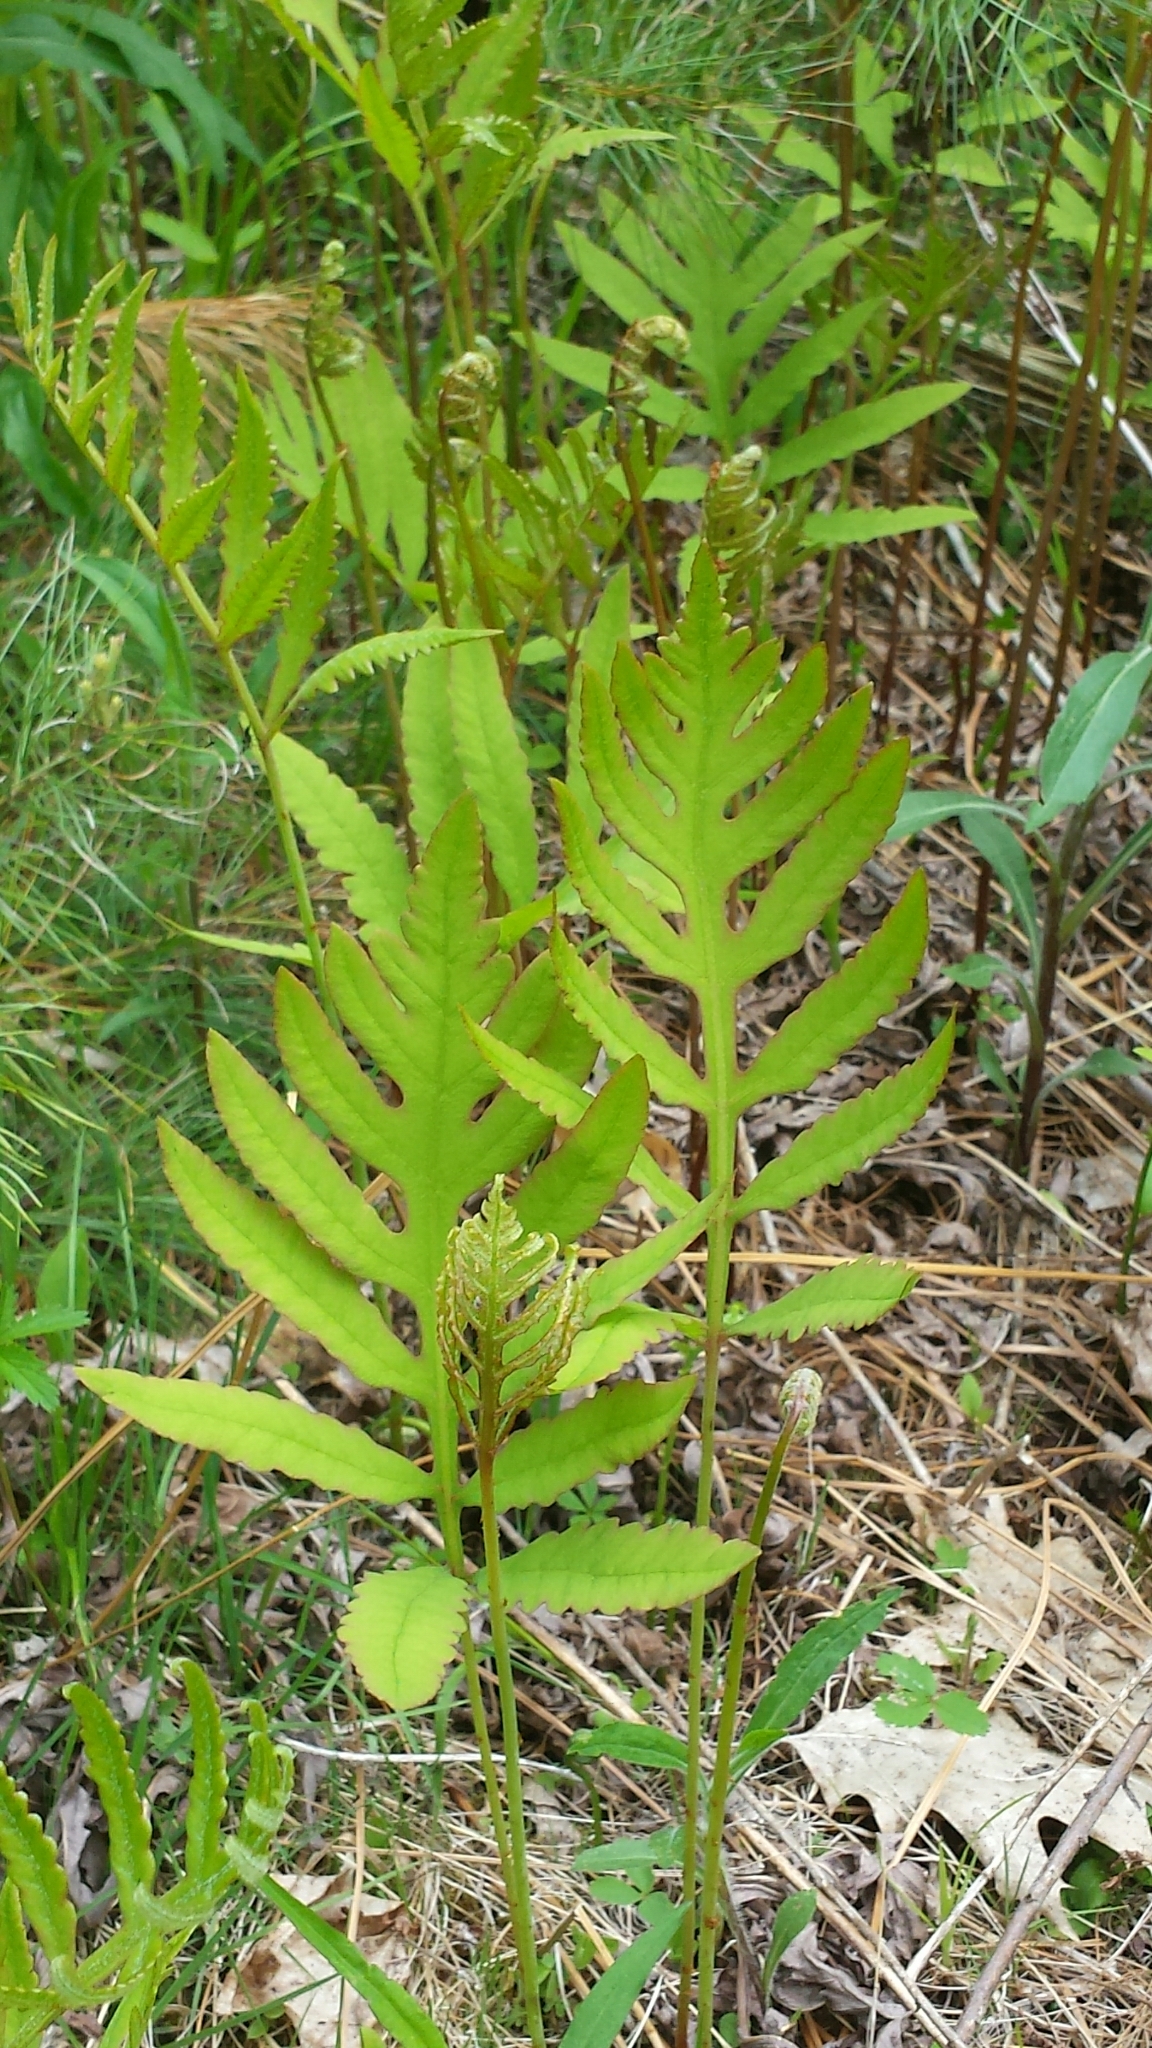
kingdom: Plantae
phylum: Tracheophyta
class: Polypodiopsida
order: Polypodiales
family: Onocleaceae
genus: Onoclea
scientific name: Onoclea sensibilis
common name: Sensitive fern
